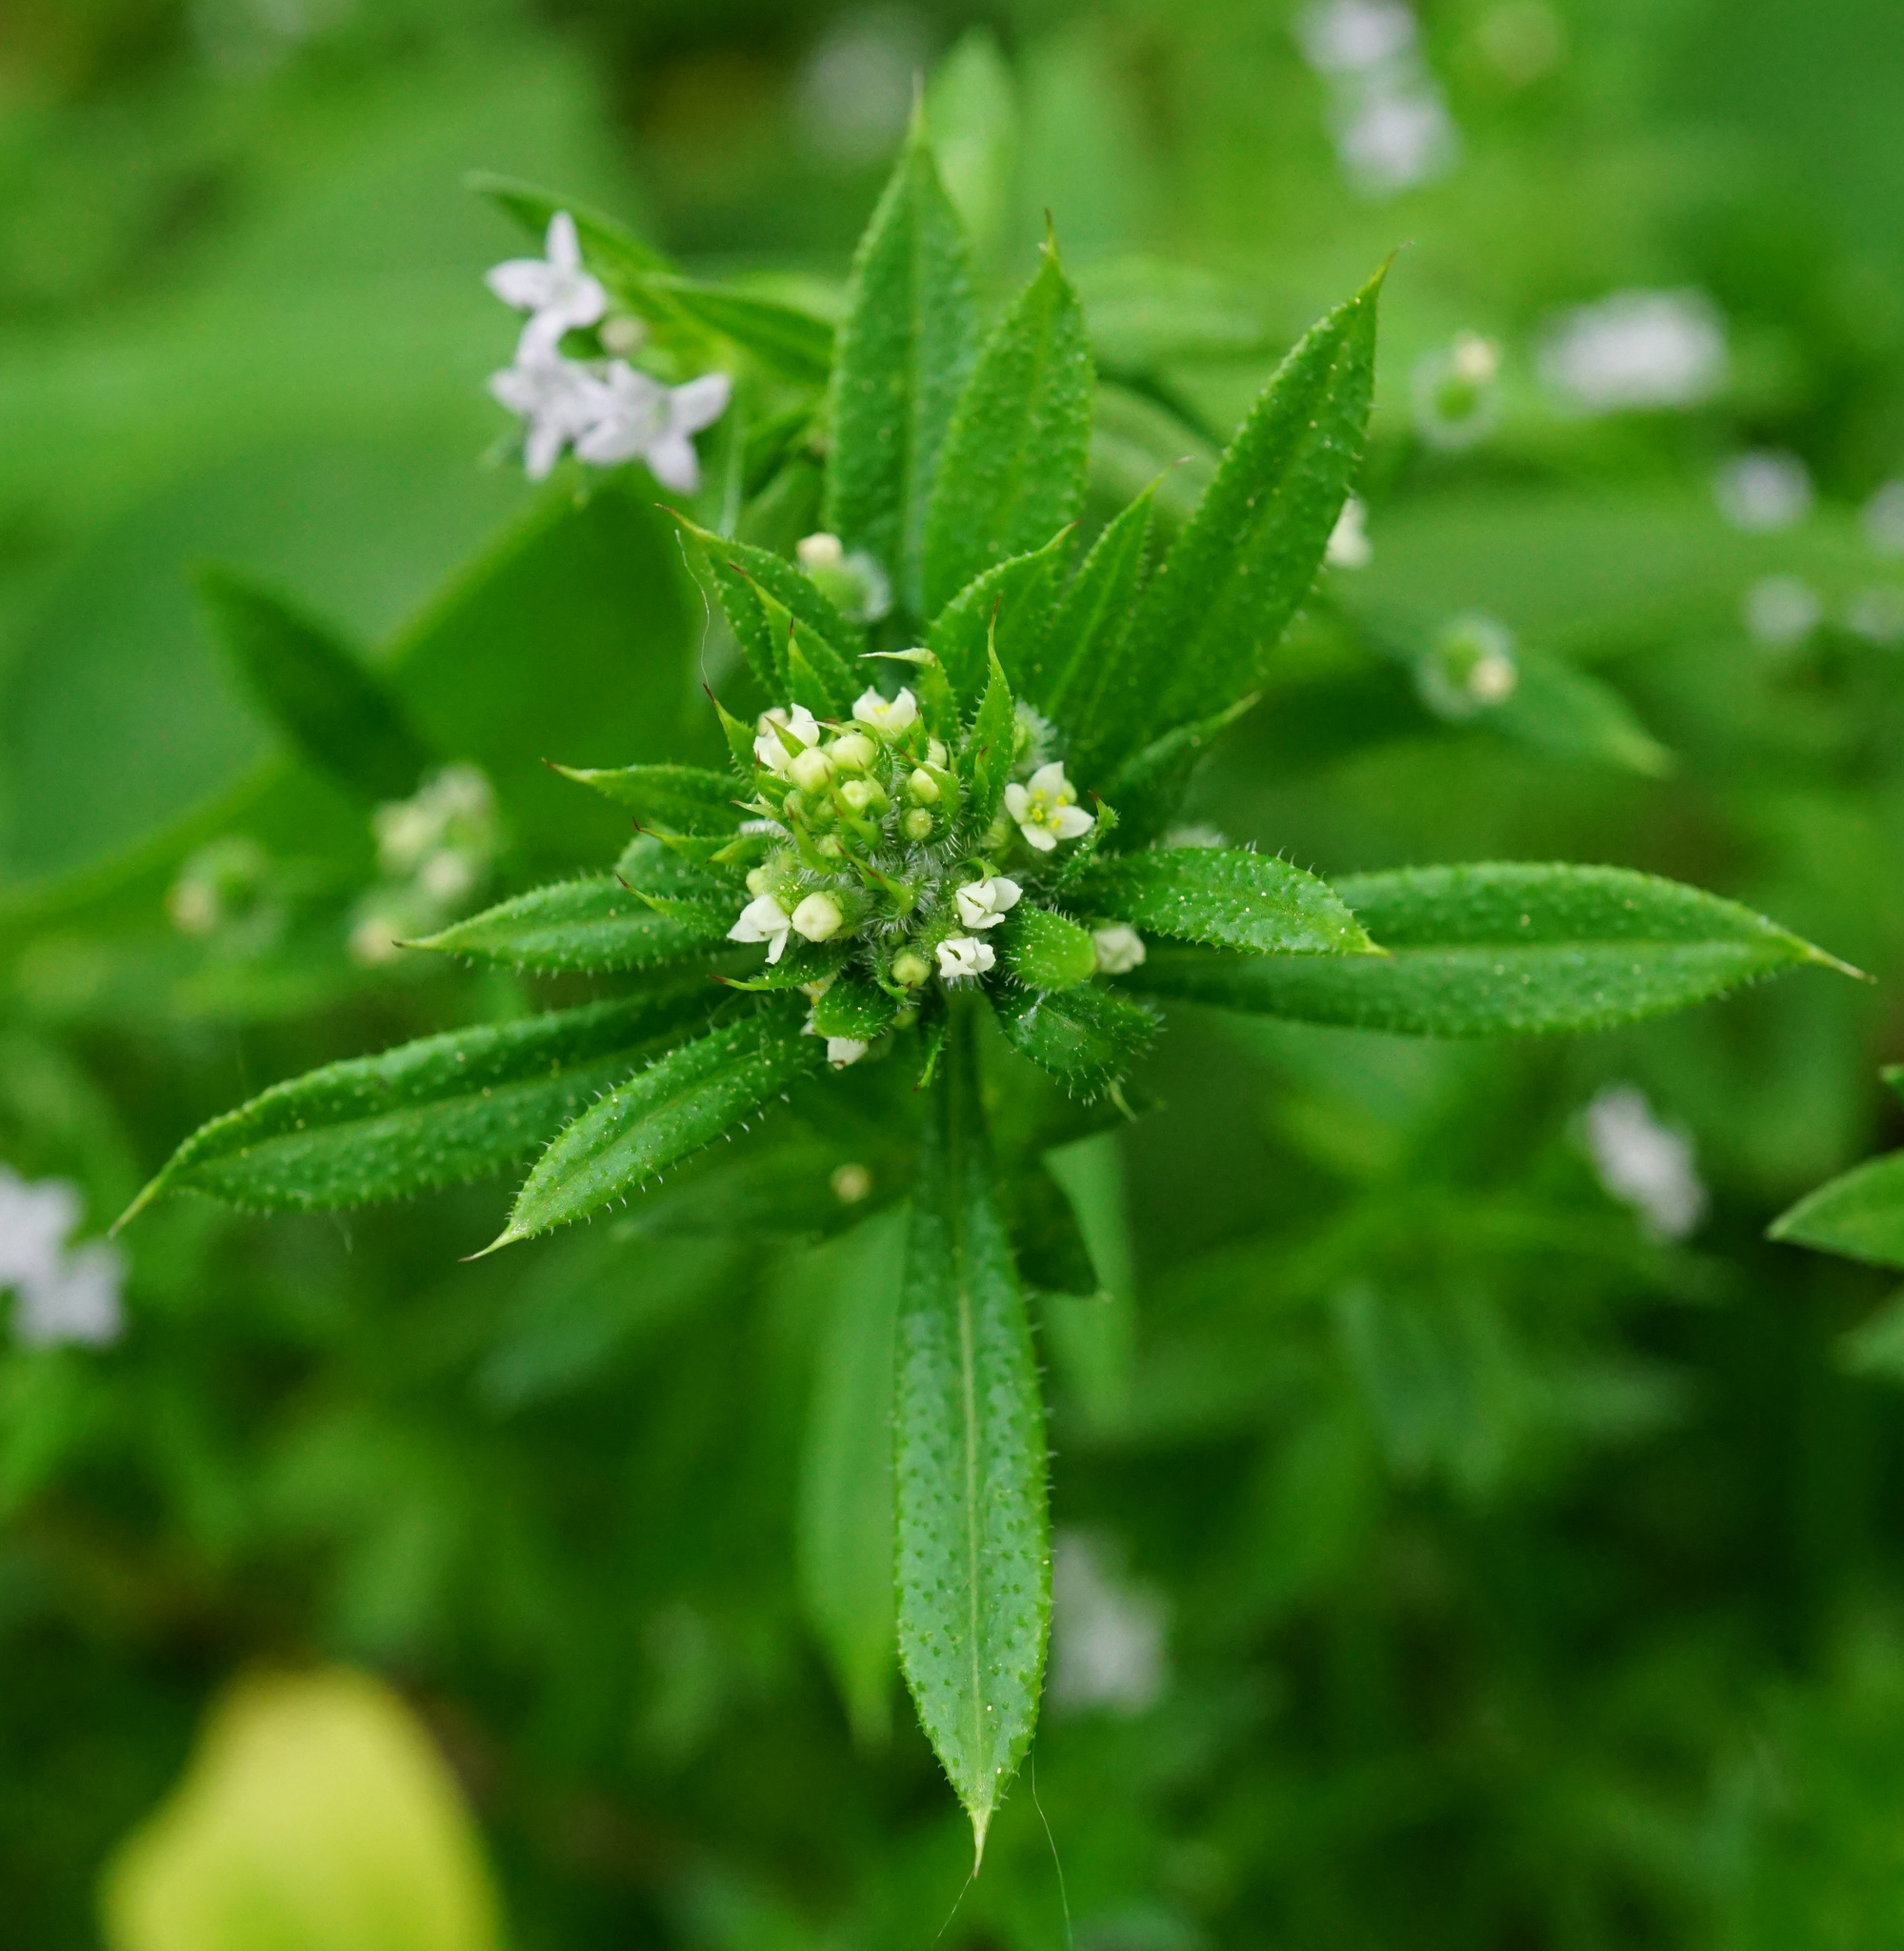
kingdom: Plantae
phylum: Tracheophyta
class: Magnoliopsida
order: Gentianales
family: Rubiaceae
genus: Galium
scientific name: Galium aparine
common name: Cleavers
